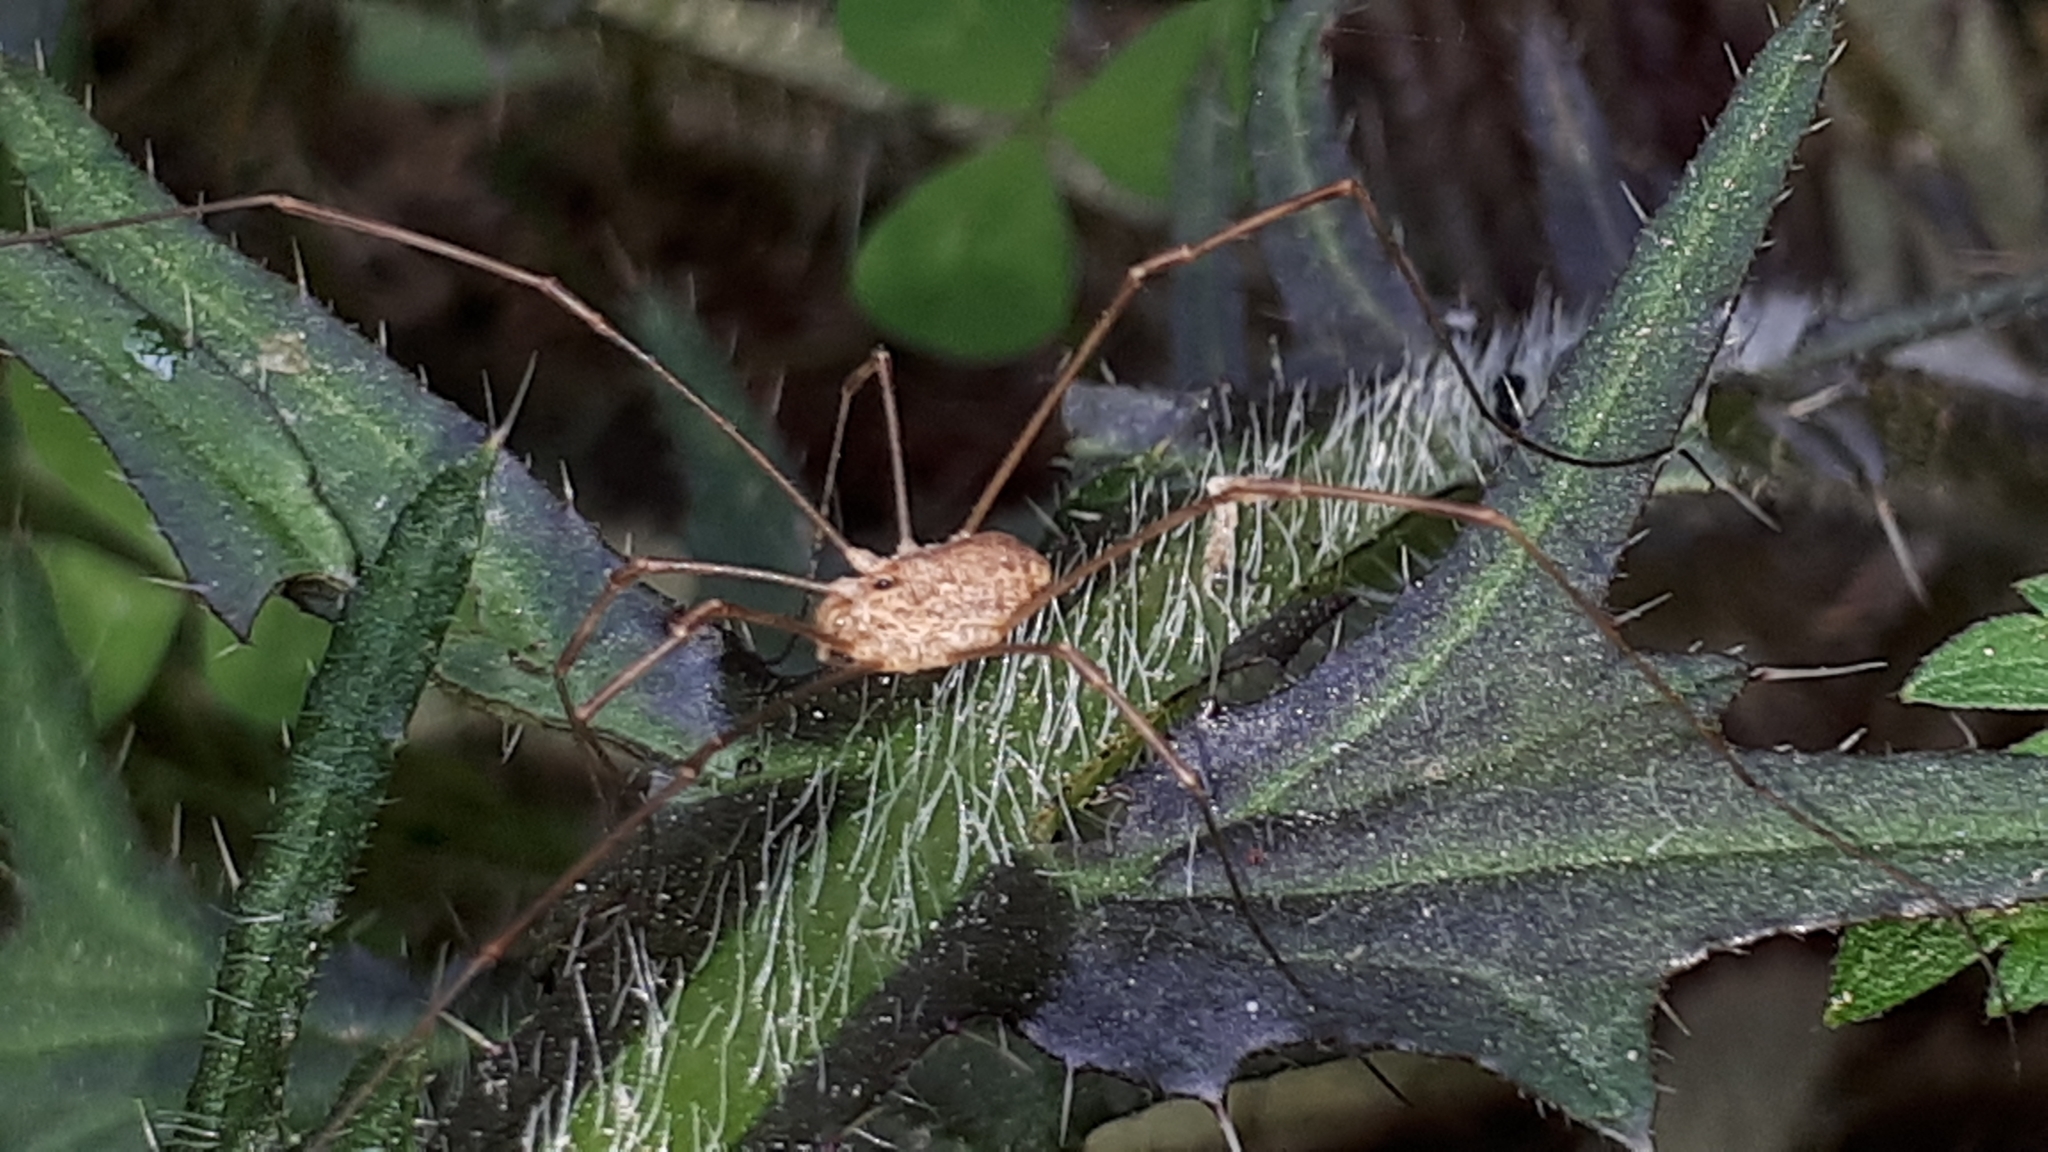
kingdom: Animalia
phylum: Arthropoda
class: Arachnida
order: Opiliones
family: Phalangiidae
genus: Rilaena
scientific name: Rilaena triangularis
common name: Spring harvestman
